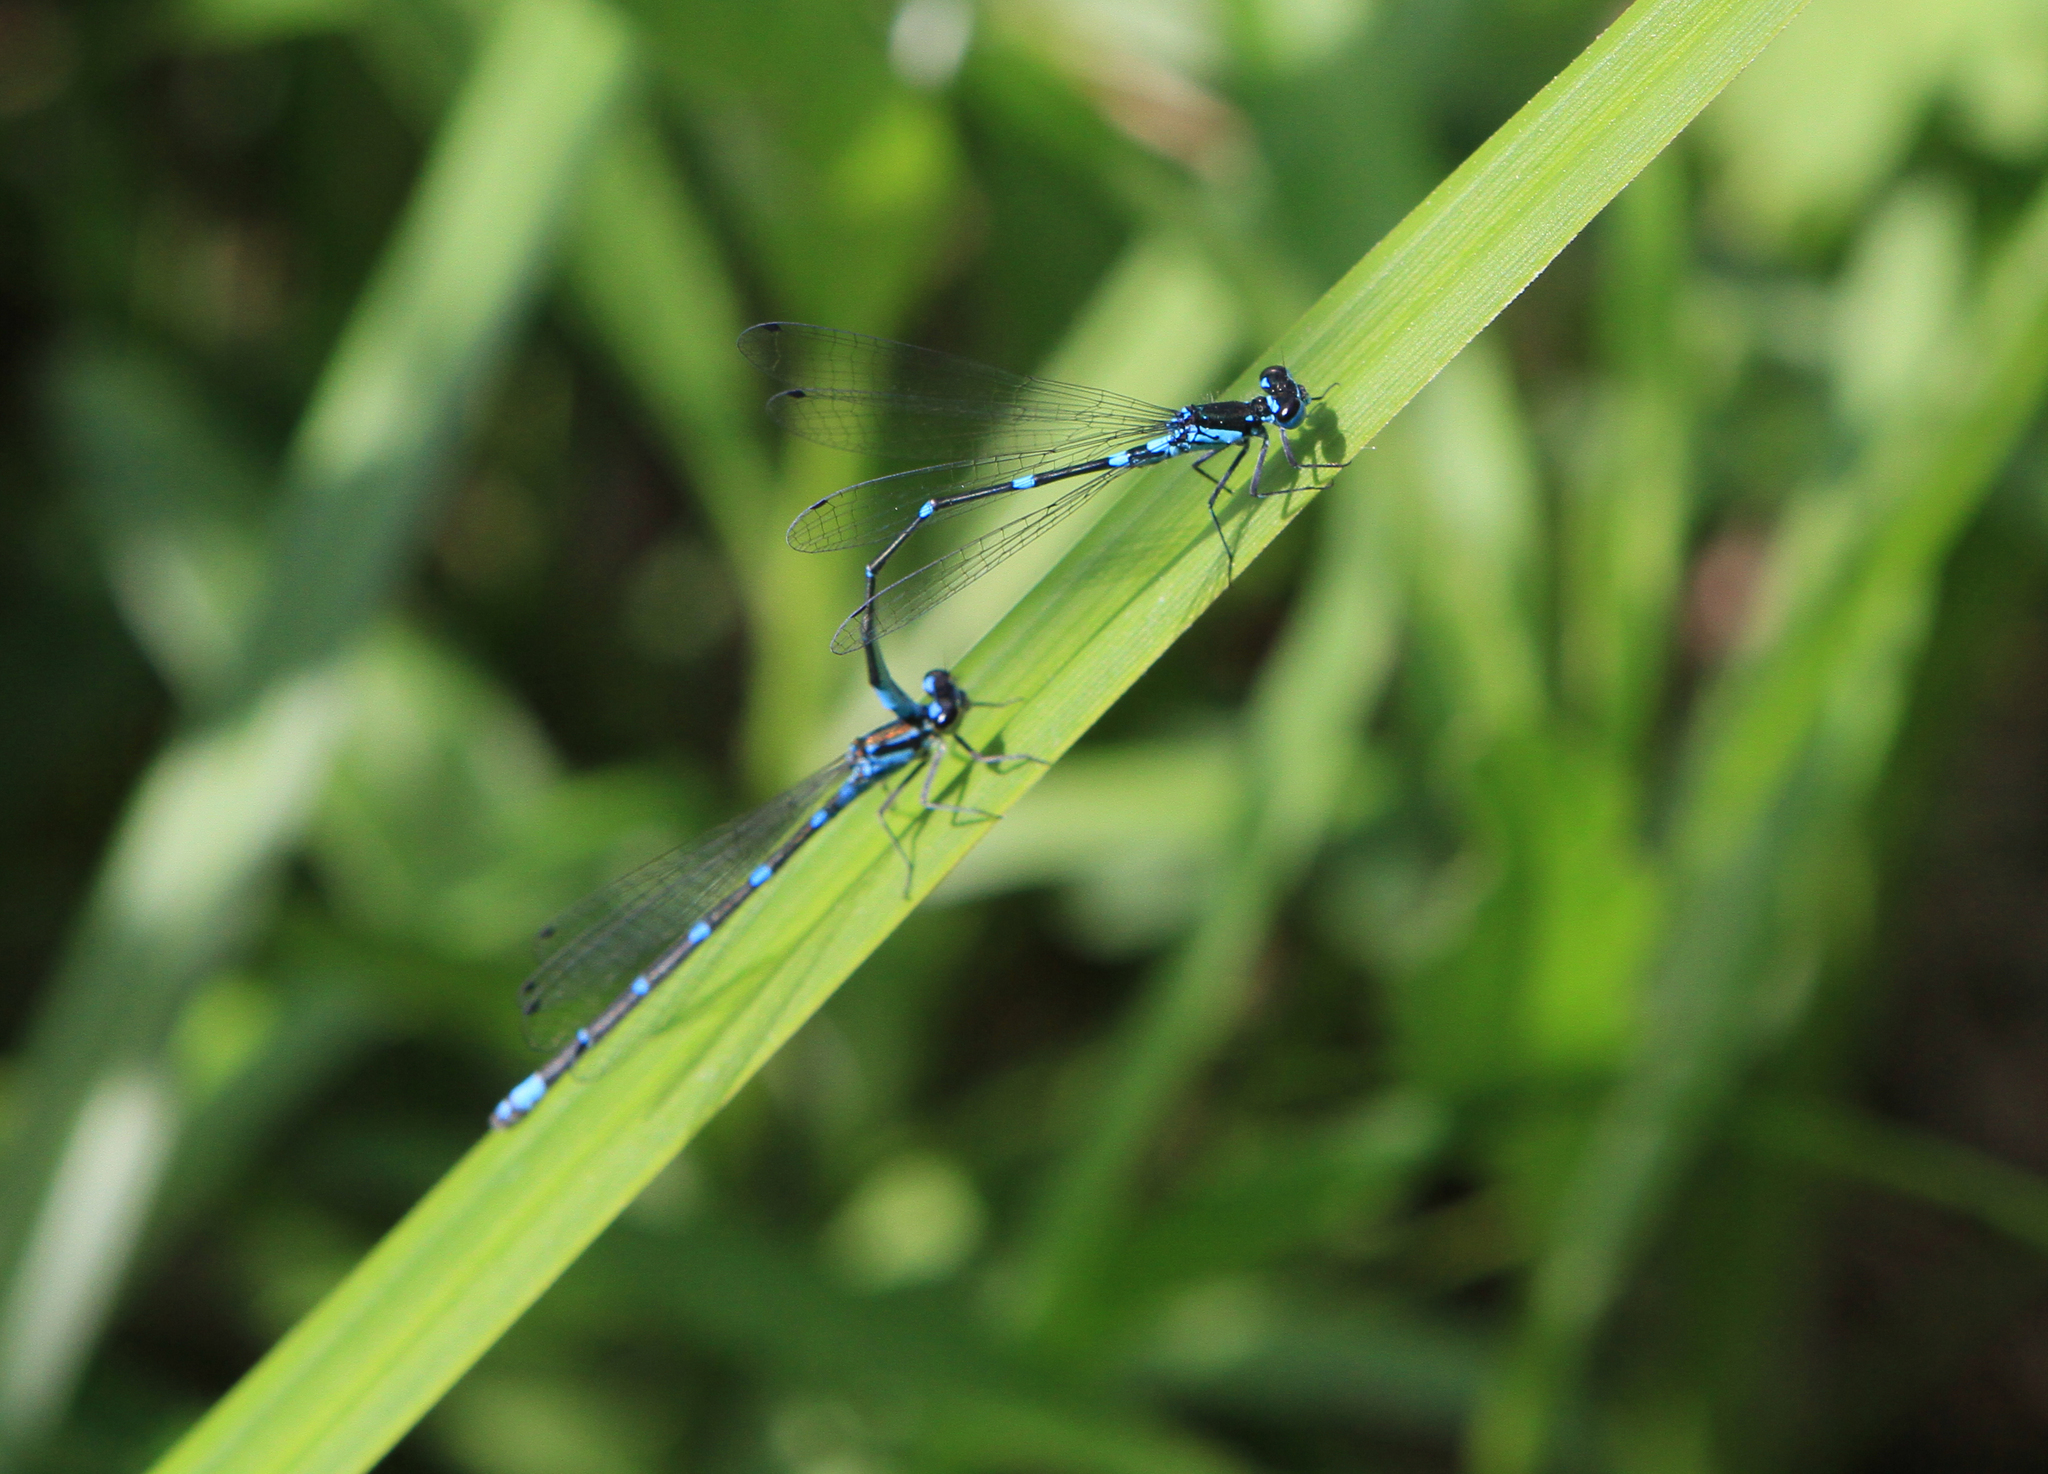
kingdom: Animalia
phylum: Arthropoda
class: Insecta
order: Odonata
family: Coenagrionidae
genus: Coenagrion
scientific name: Coenagrion pulchellum
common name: Variable bluet
